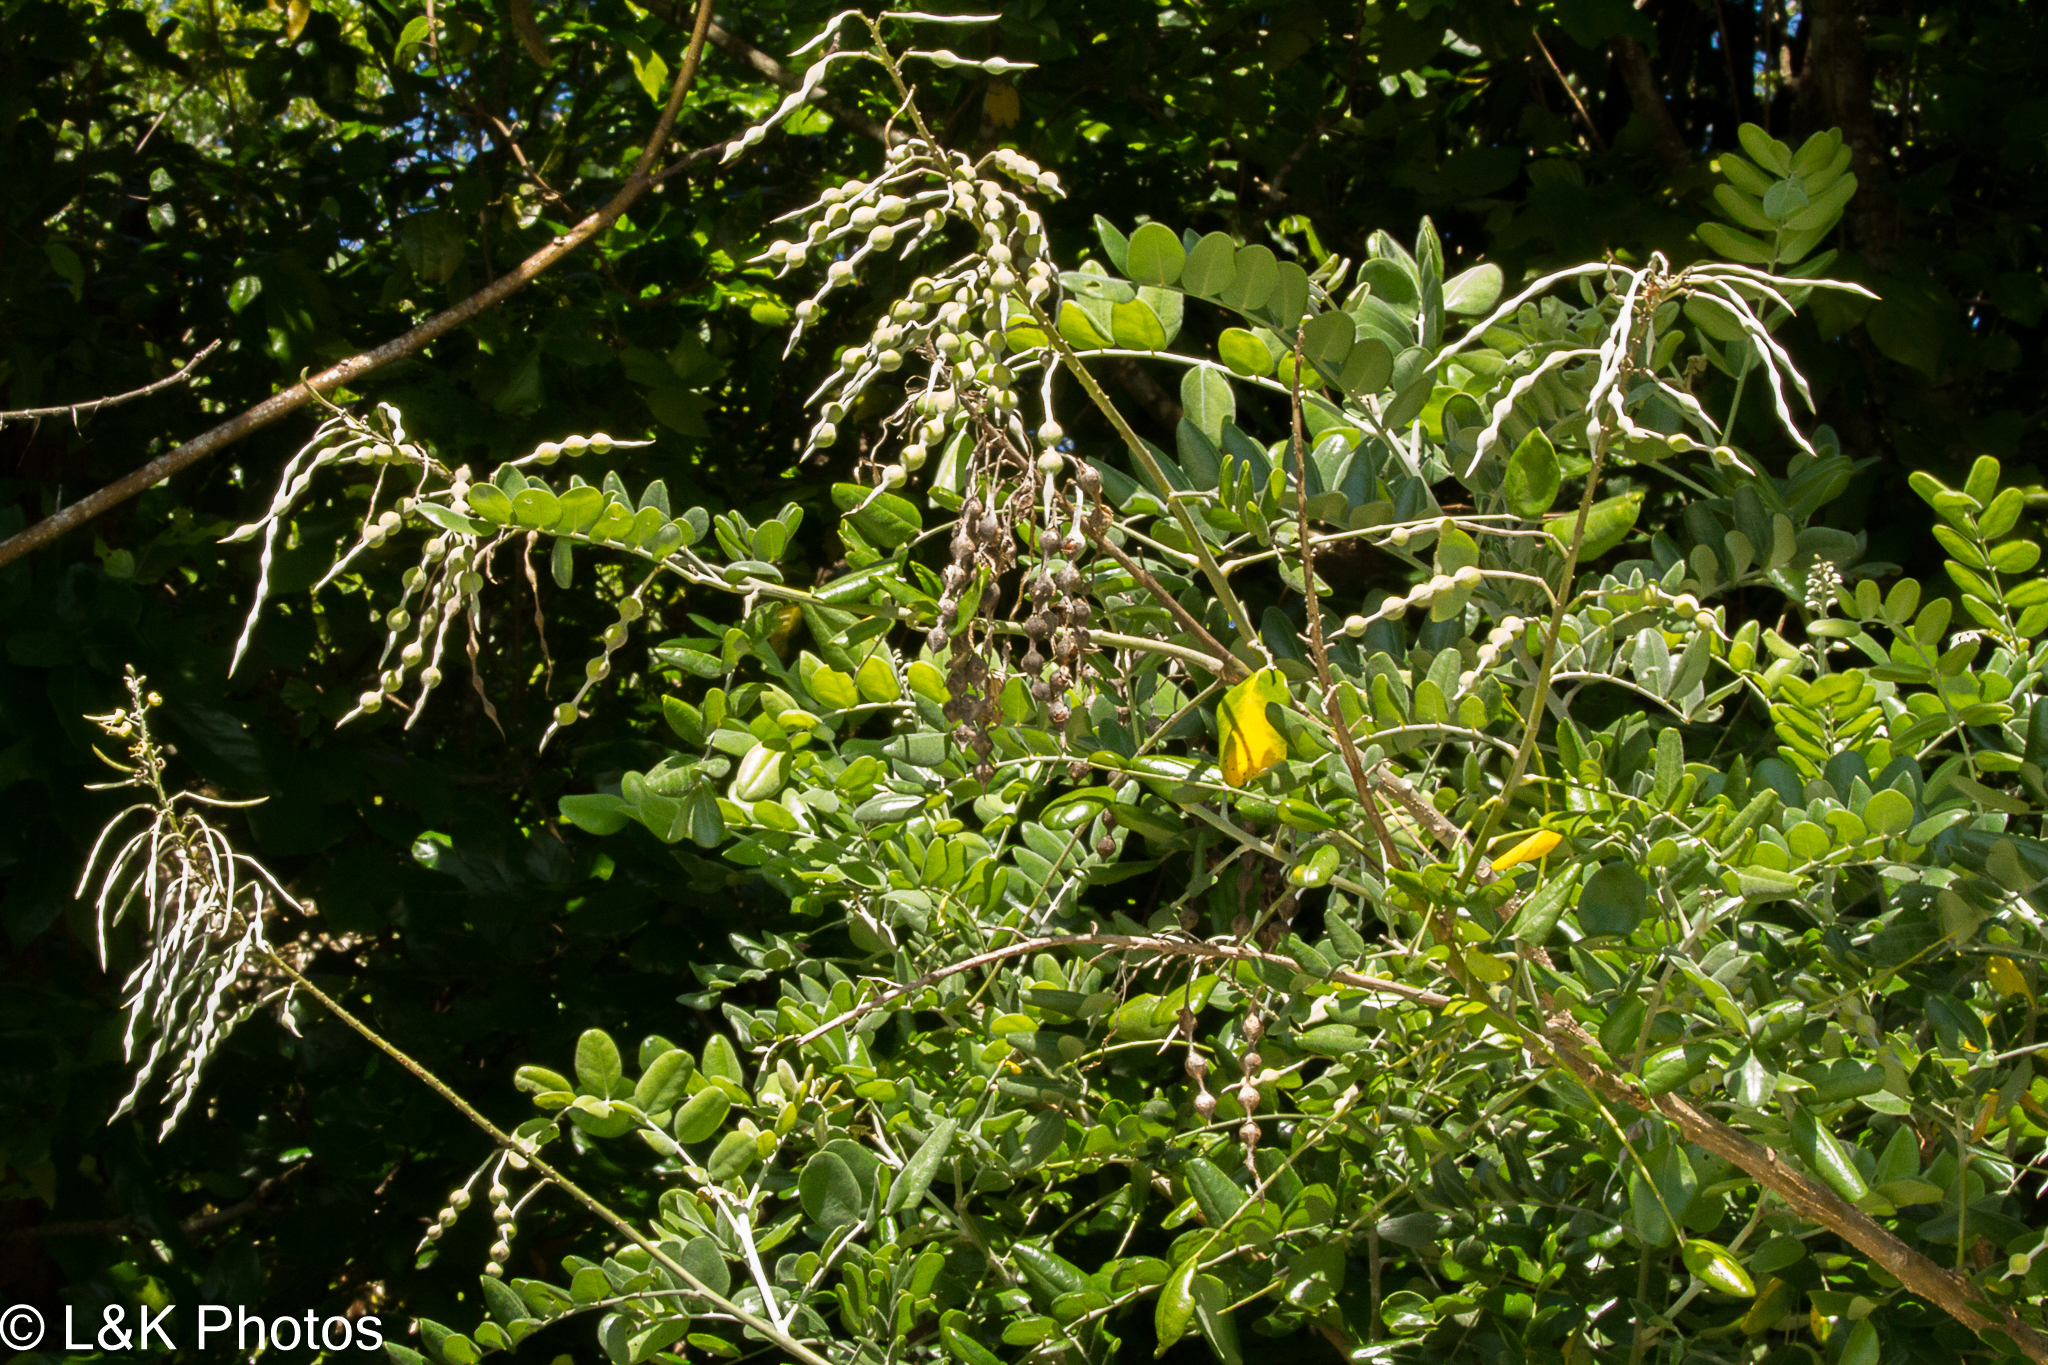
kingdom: Plantae
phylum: Tracheophyta
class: Magnoliopsida
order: Fabales
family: Fabaceae
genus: Sophora
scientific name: Sophora tomentosa
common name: Yellow necklacepod
